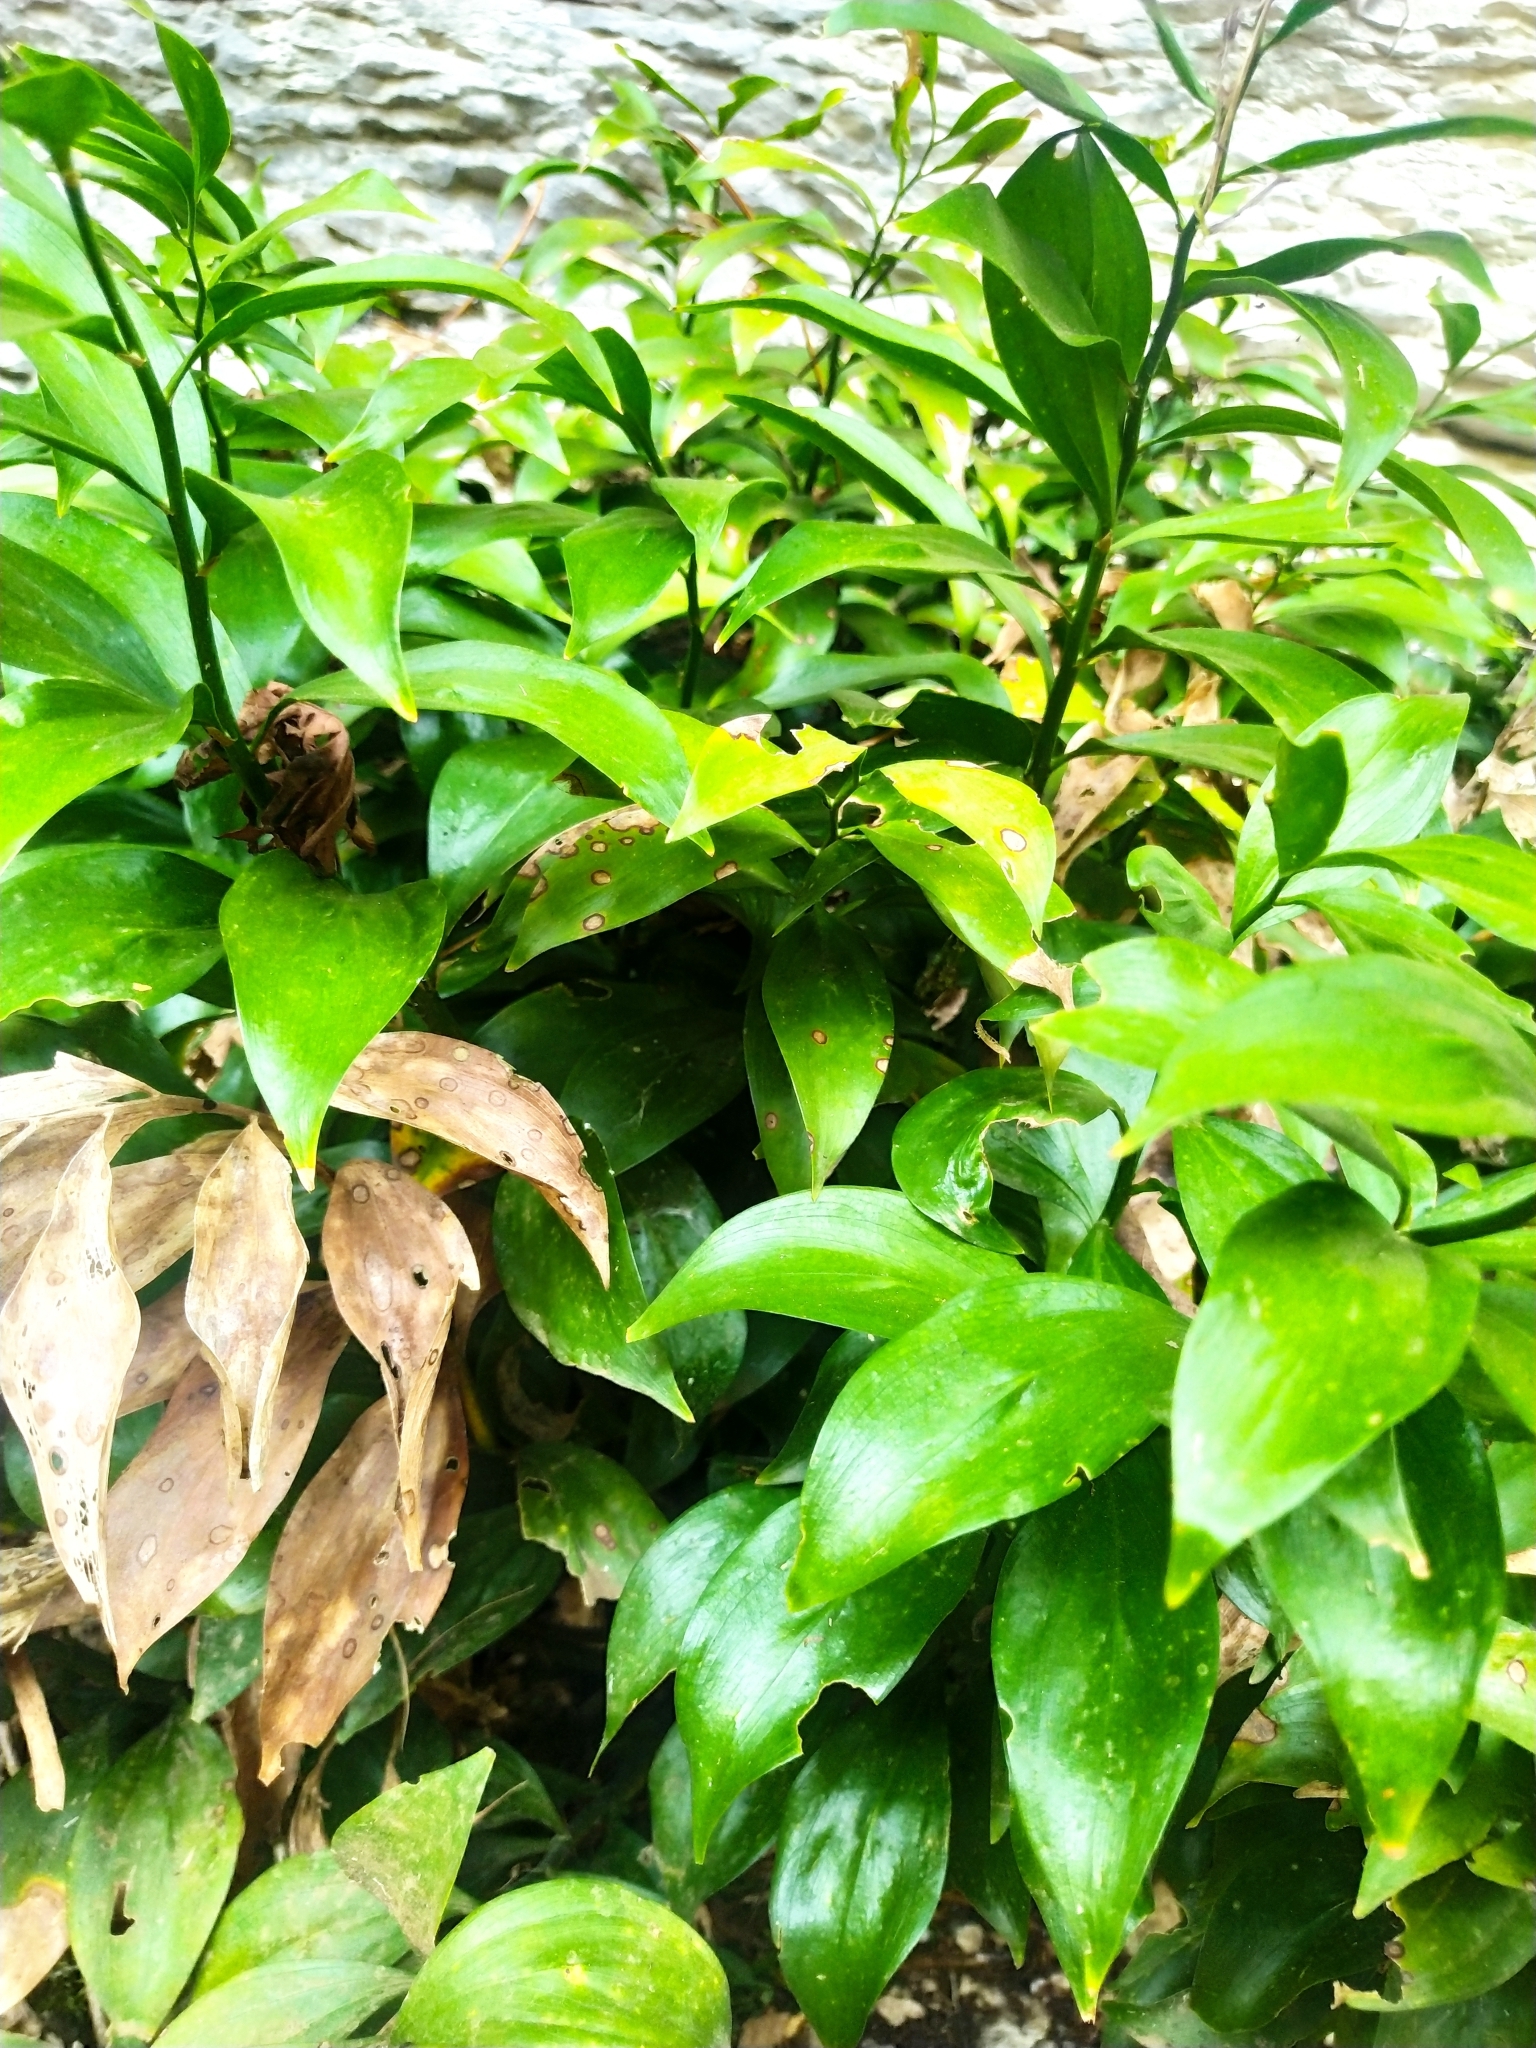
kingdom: Plantae
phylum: Tracheophyta
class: Liliopsida
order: Asparagales
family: Asparagaceae
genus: Ruscus
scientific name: Ruscus colchicus
